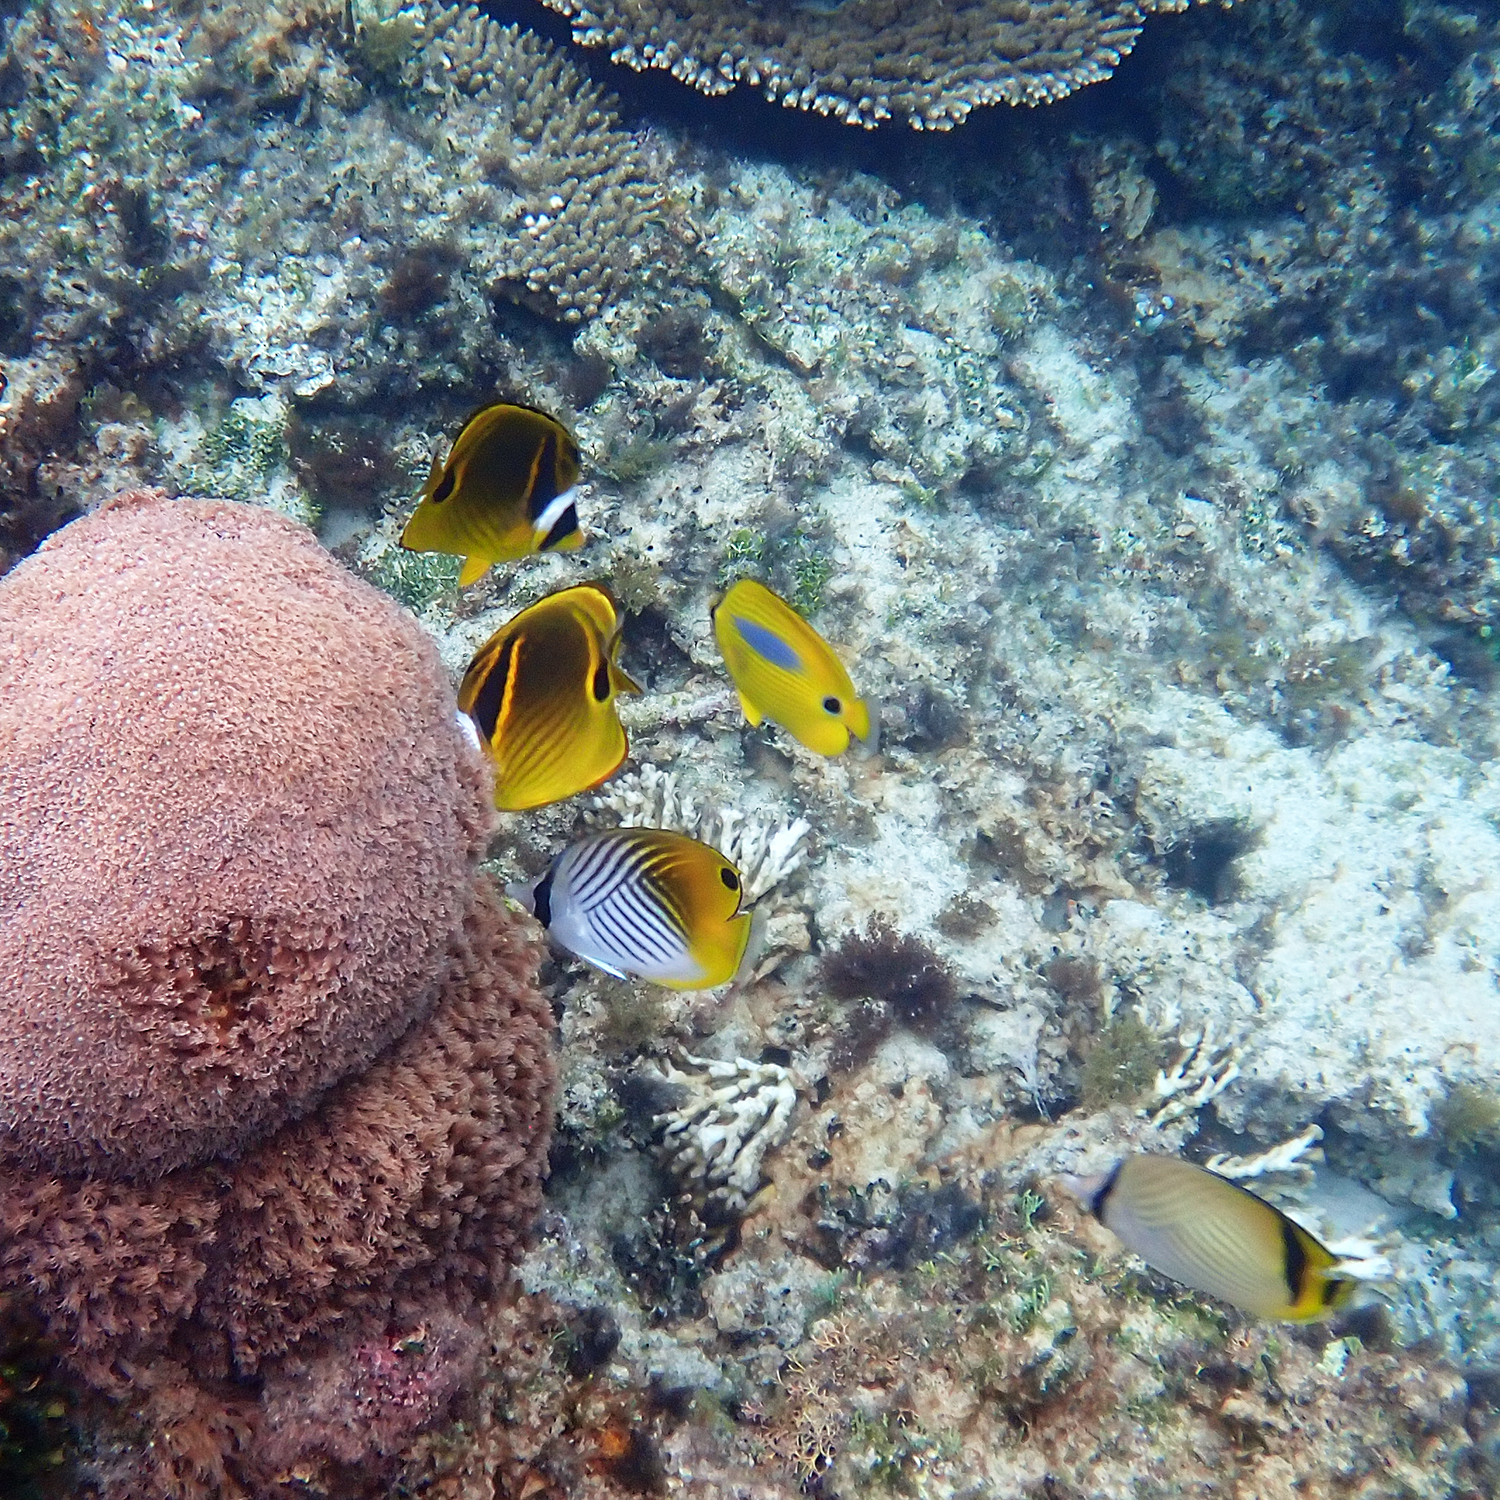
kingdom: Animalia
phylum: Chordata
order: Perciformes
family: Chaetodontidae
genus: Chaetodon
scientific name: Chaetodon lunula
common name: Raccoon butterflyfish
